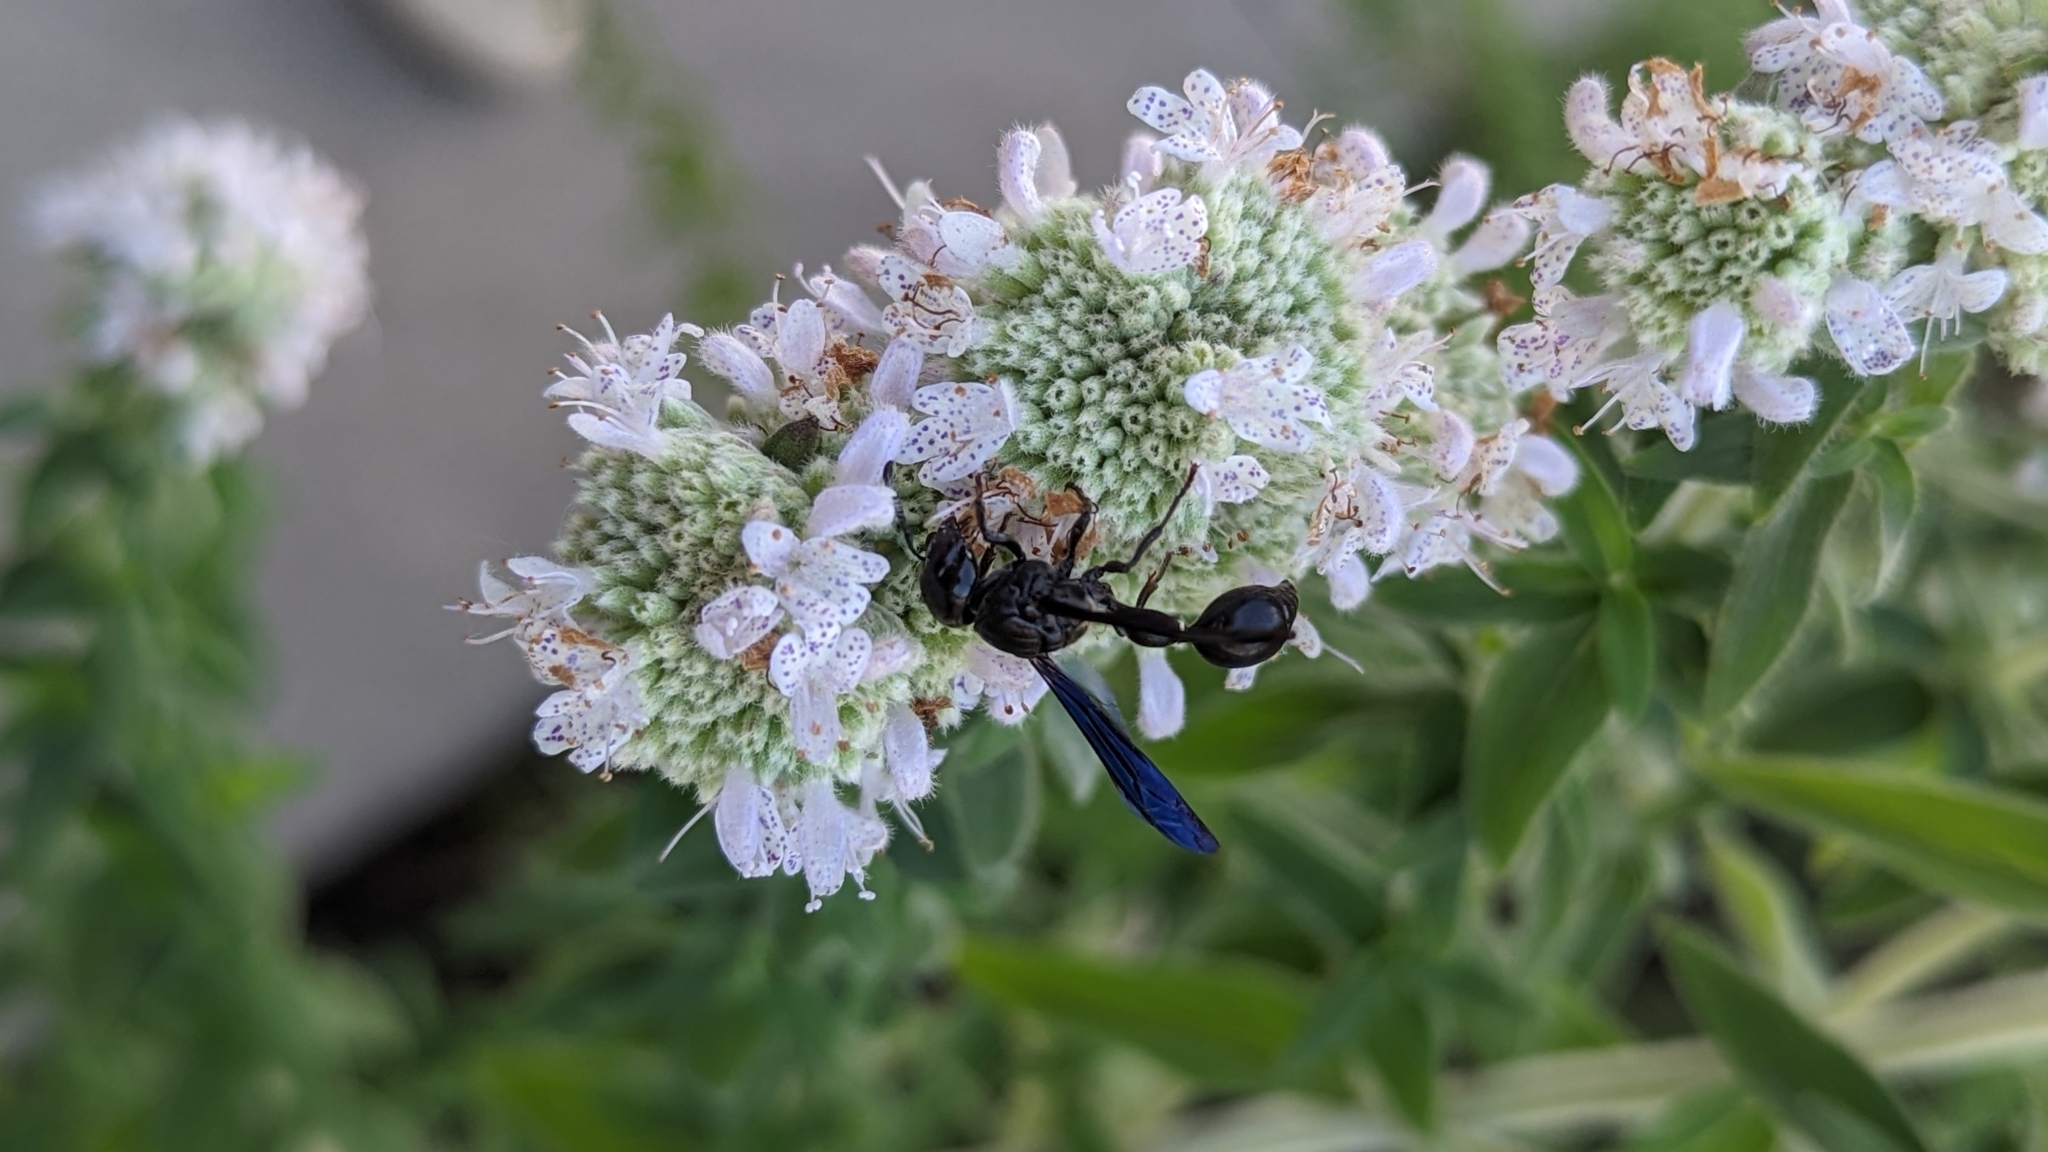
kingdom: Animalia
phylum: Arthropoda
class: Insecta
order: Hymenoptera
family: Eumenidae
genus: Zethus
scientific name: Zethus spinipes
